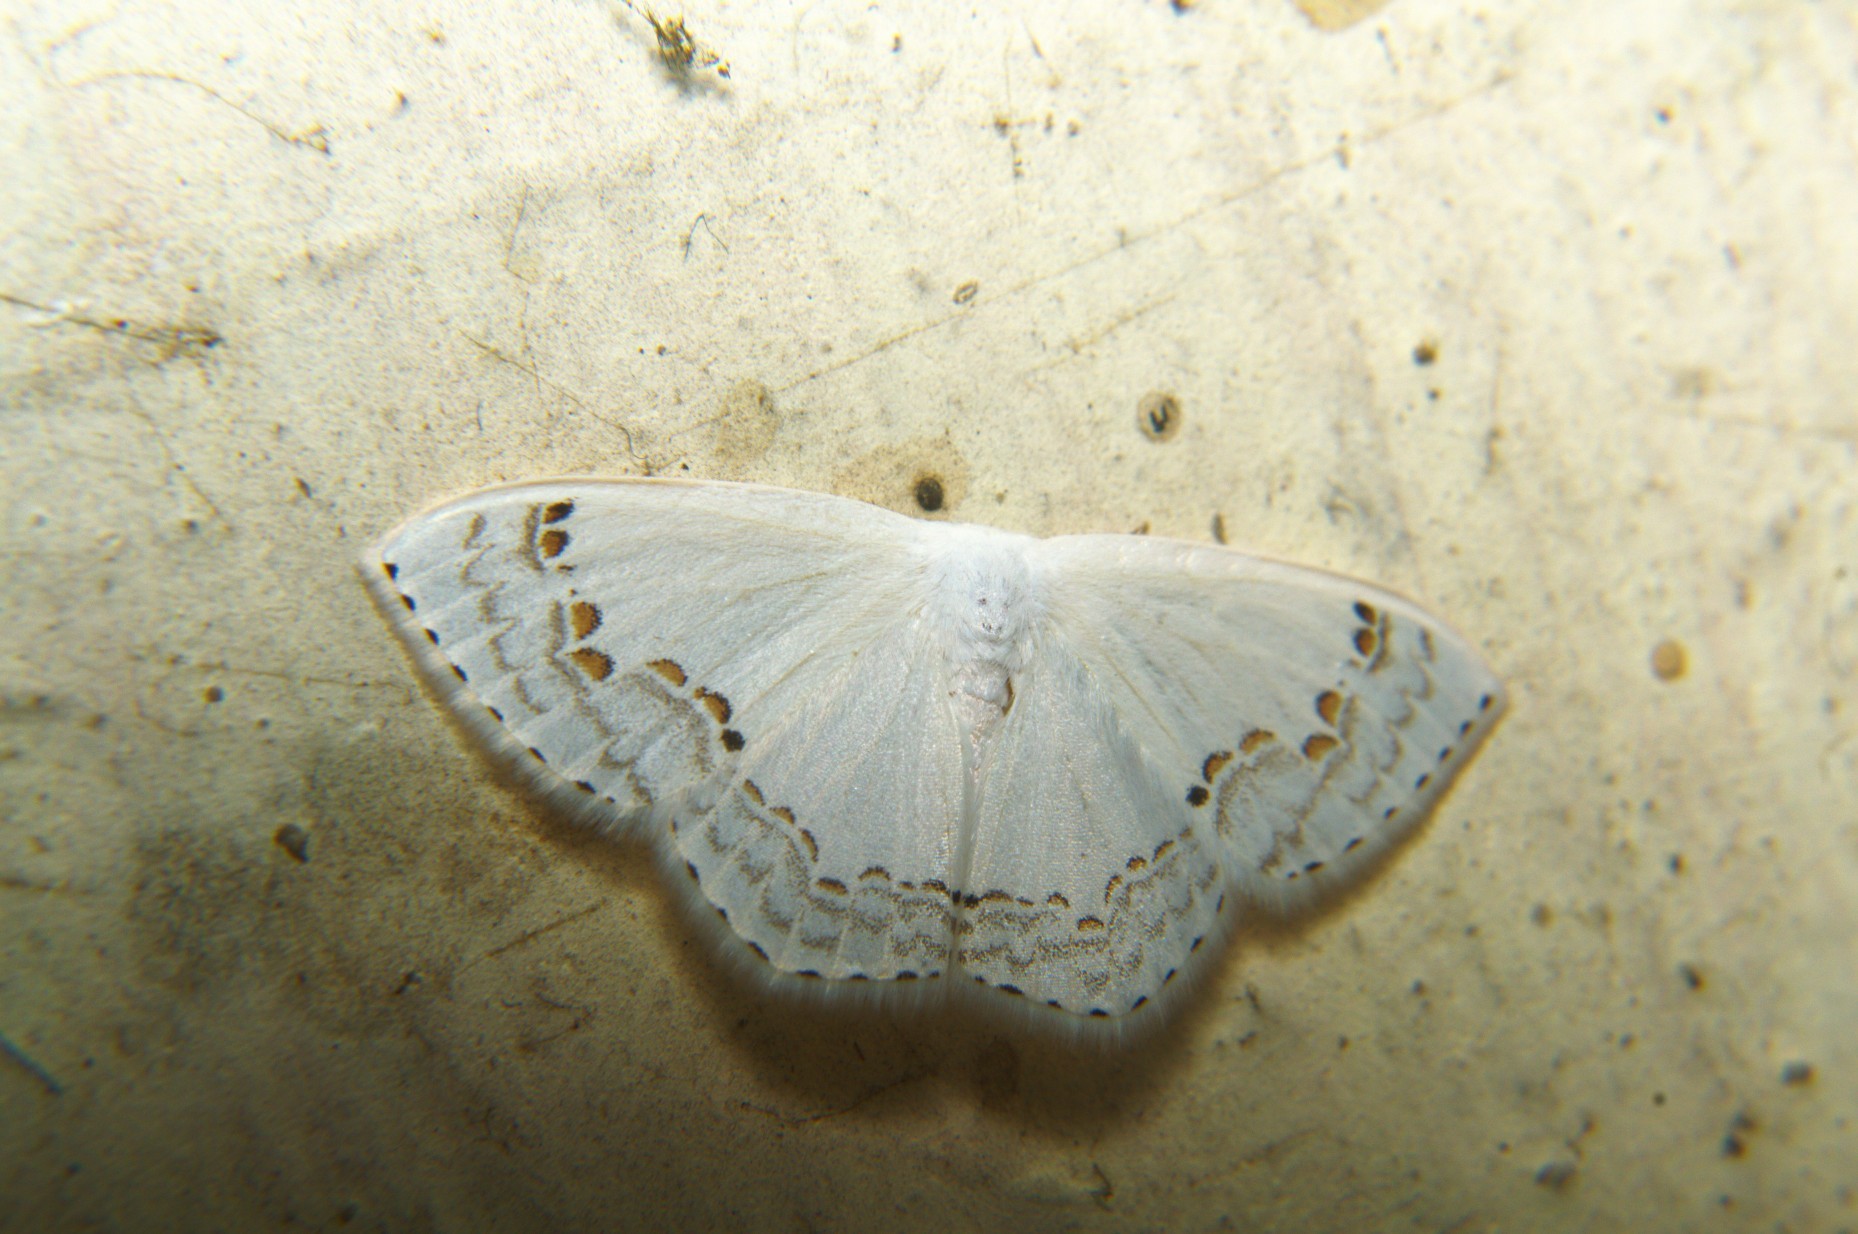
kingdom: Animalia
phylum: Arthropoda
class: Insecta
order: Lepidoptera
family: Drepanidae
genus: Teldenia
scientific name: Teldenia vestigiata
